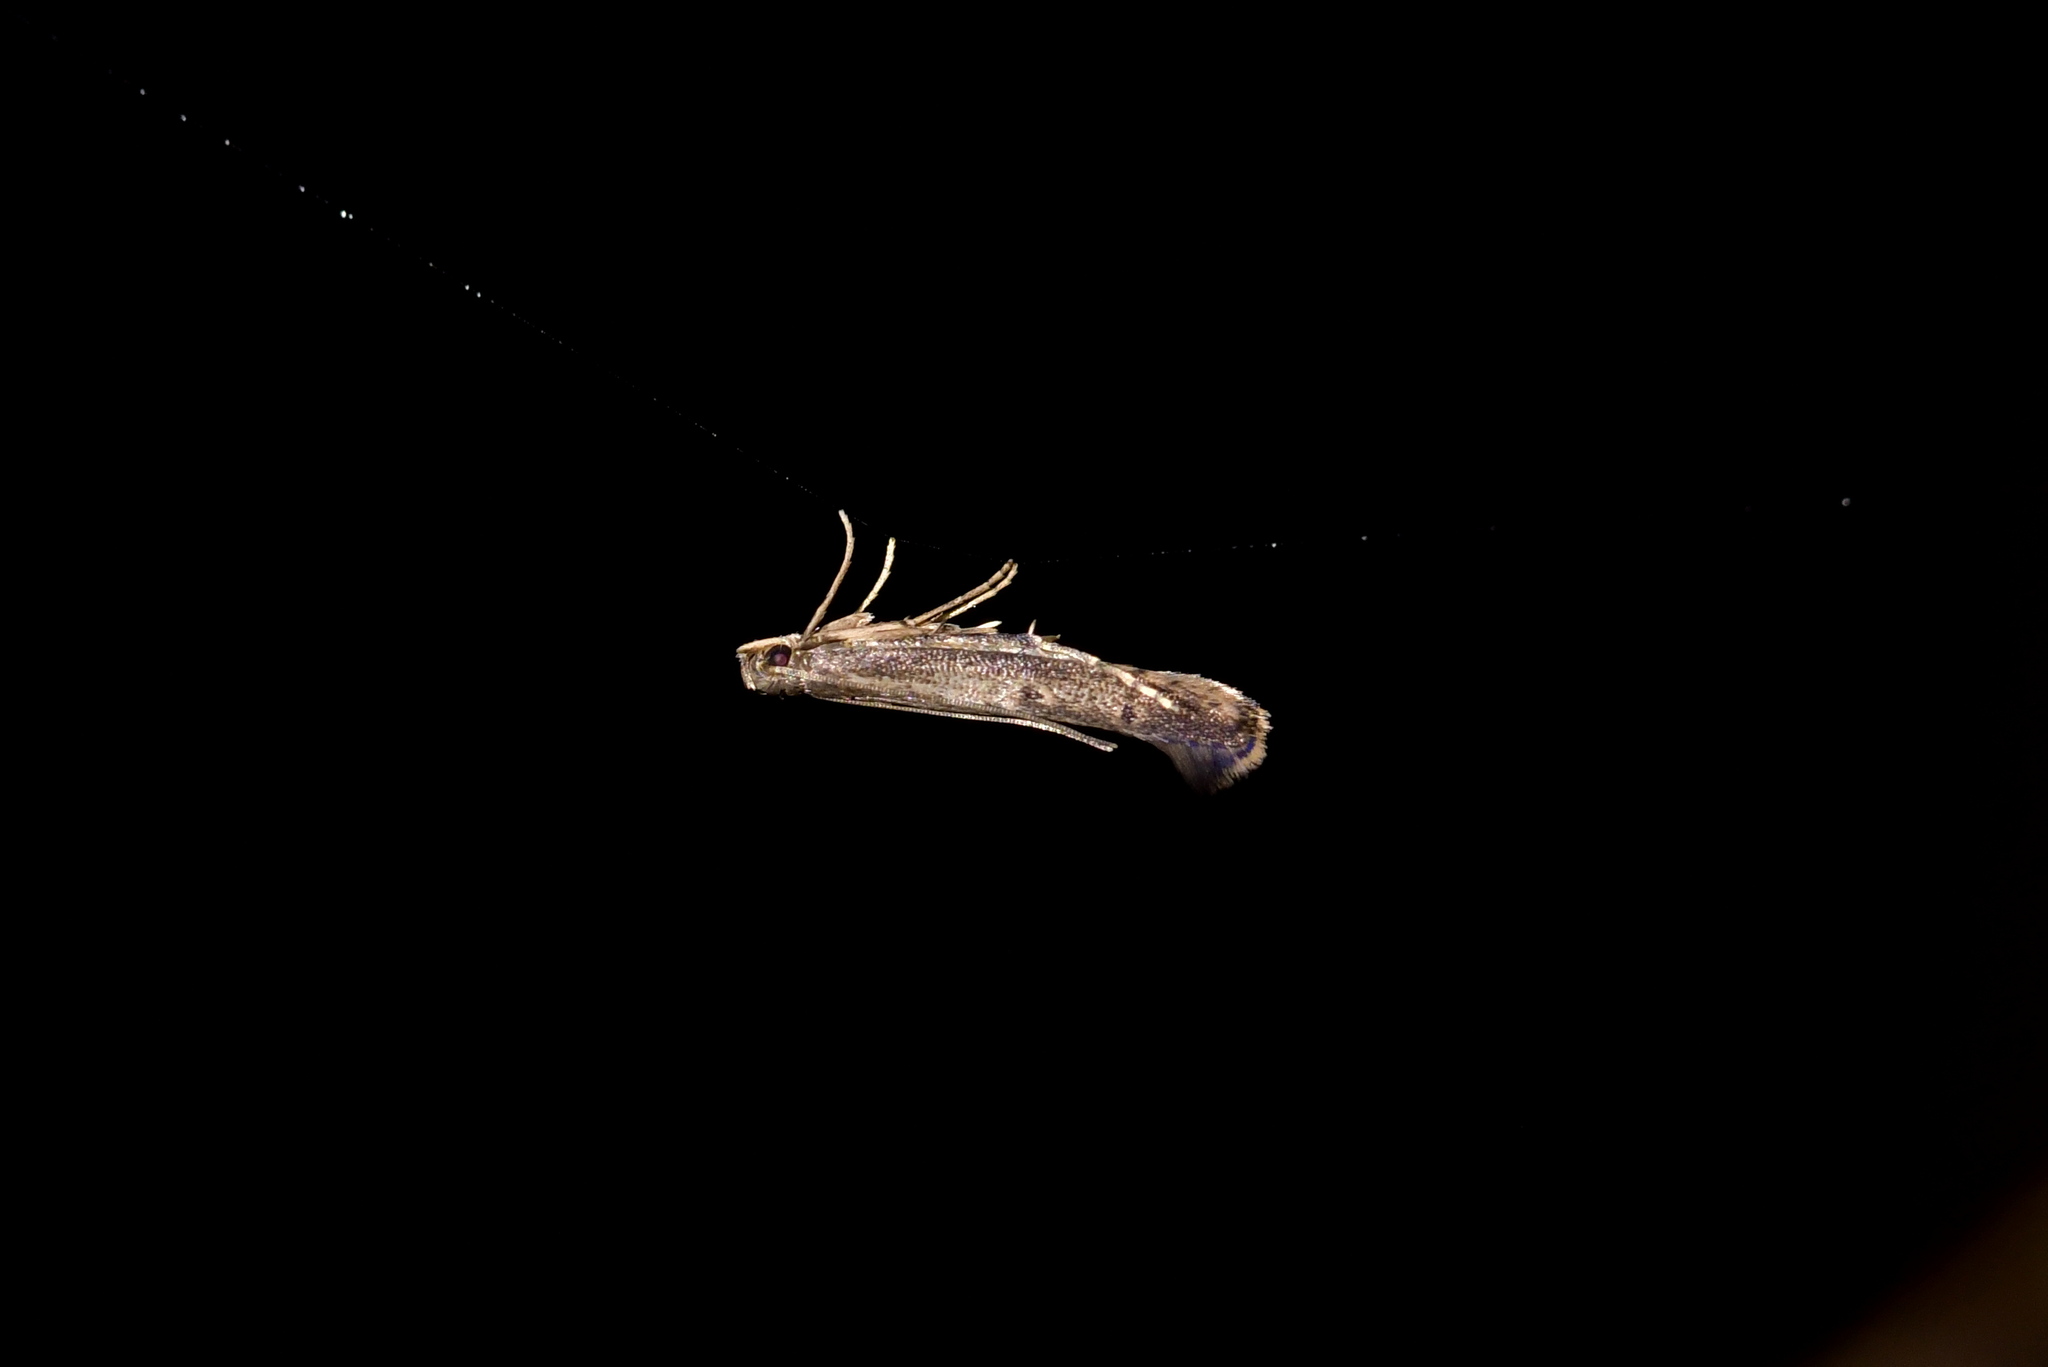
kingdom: Animalia
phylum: Arthropoda
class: Insecta
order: Lepidoptera
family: Batrachedridae
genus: Batrachedra
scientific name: Batrachedra agaura
